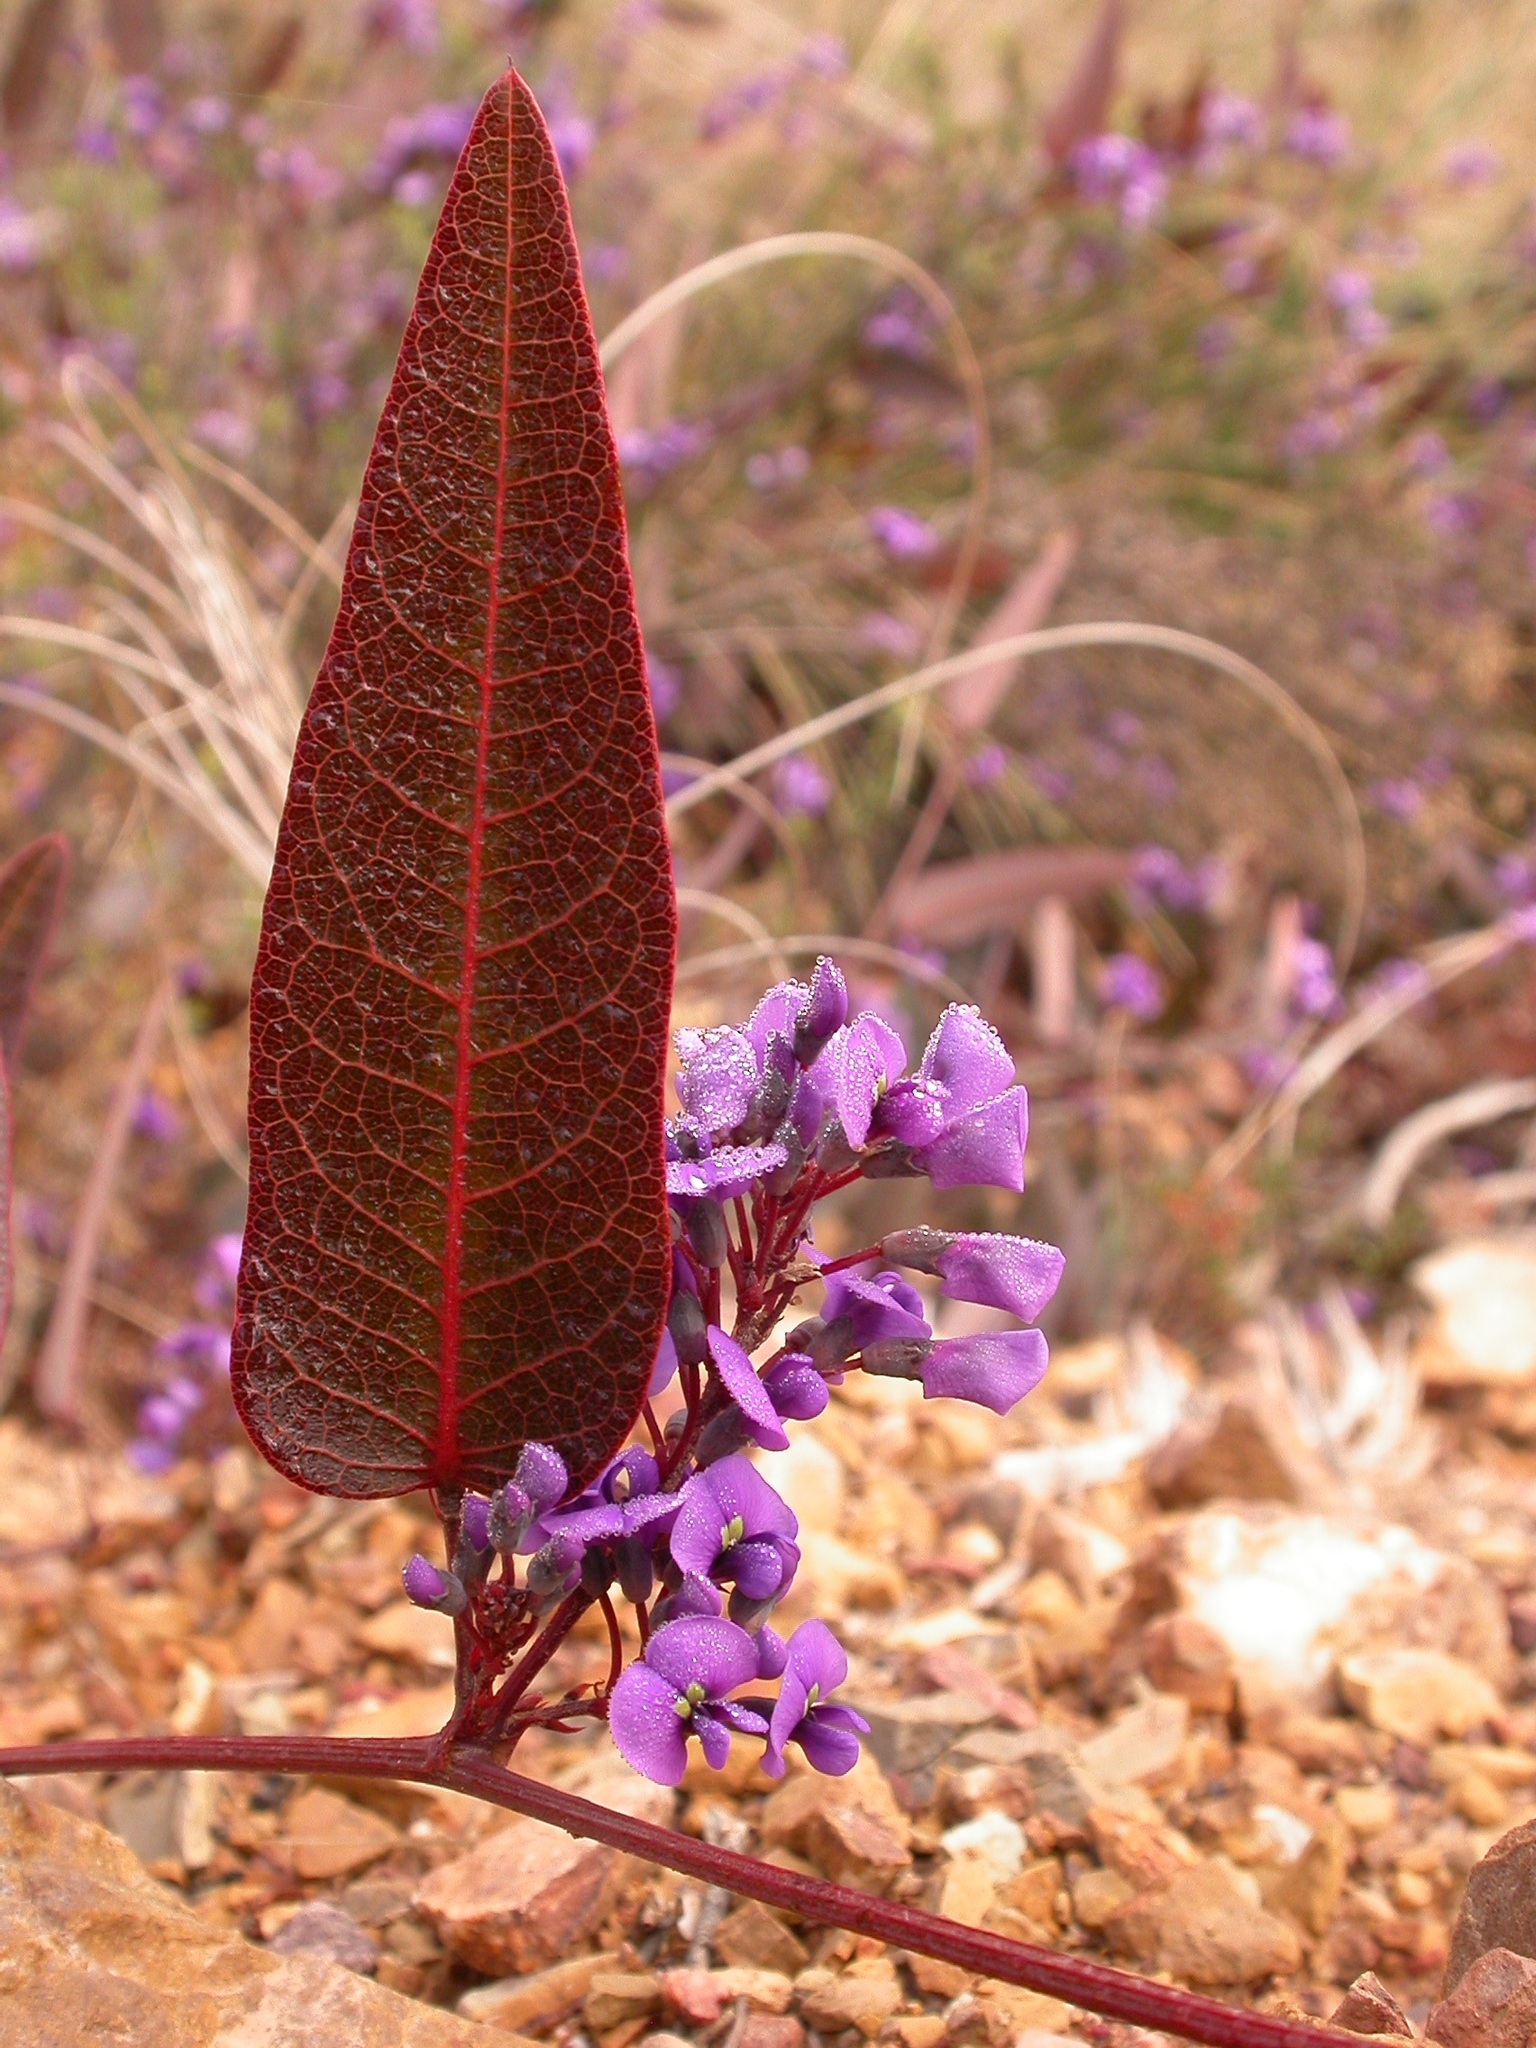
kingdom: Plantae
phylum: Tracheophyta
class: Magnoliopsida
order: Fabales
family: Fabaceae
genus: Hardenbergia
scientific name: Hardenbergia violacea
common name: Coral-pea
